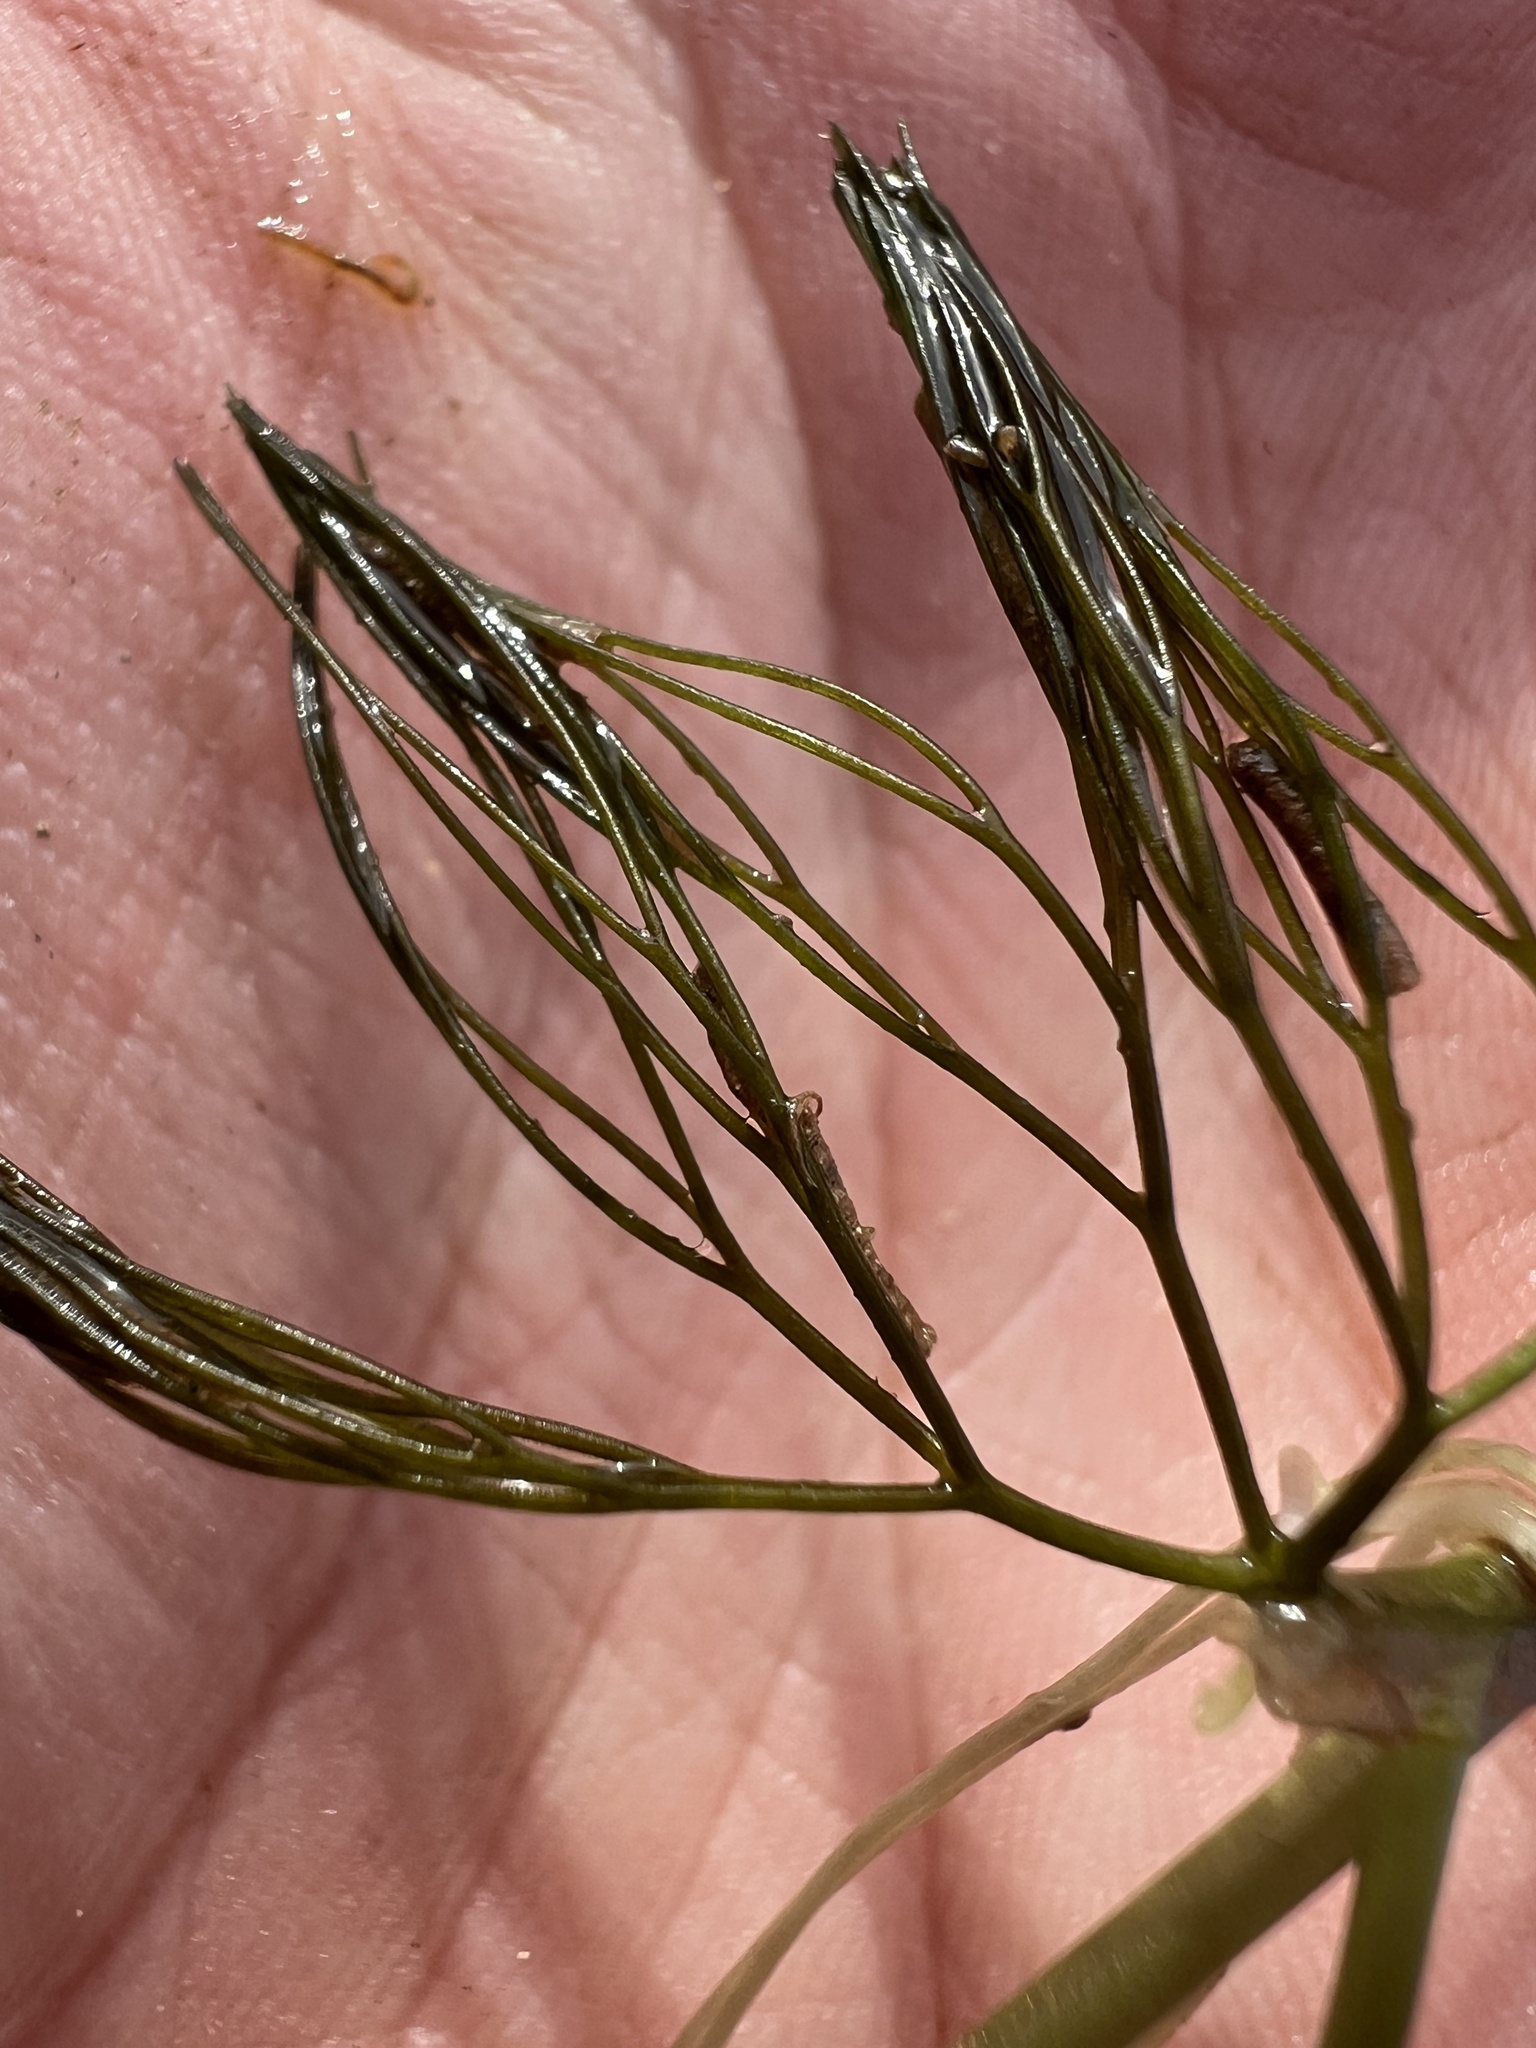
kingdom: Plantae
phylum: Tracheophyta
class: Magnoliopsida
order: Ranunculales
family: Ranunculaceae
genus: Ranunculus
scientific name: Ranunculus longirostris
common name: Curly white water-crowfoot
